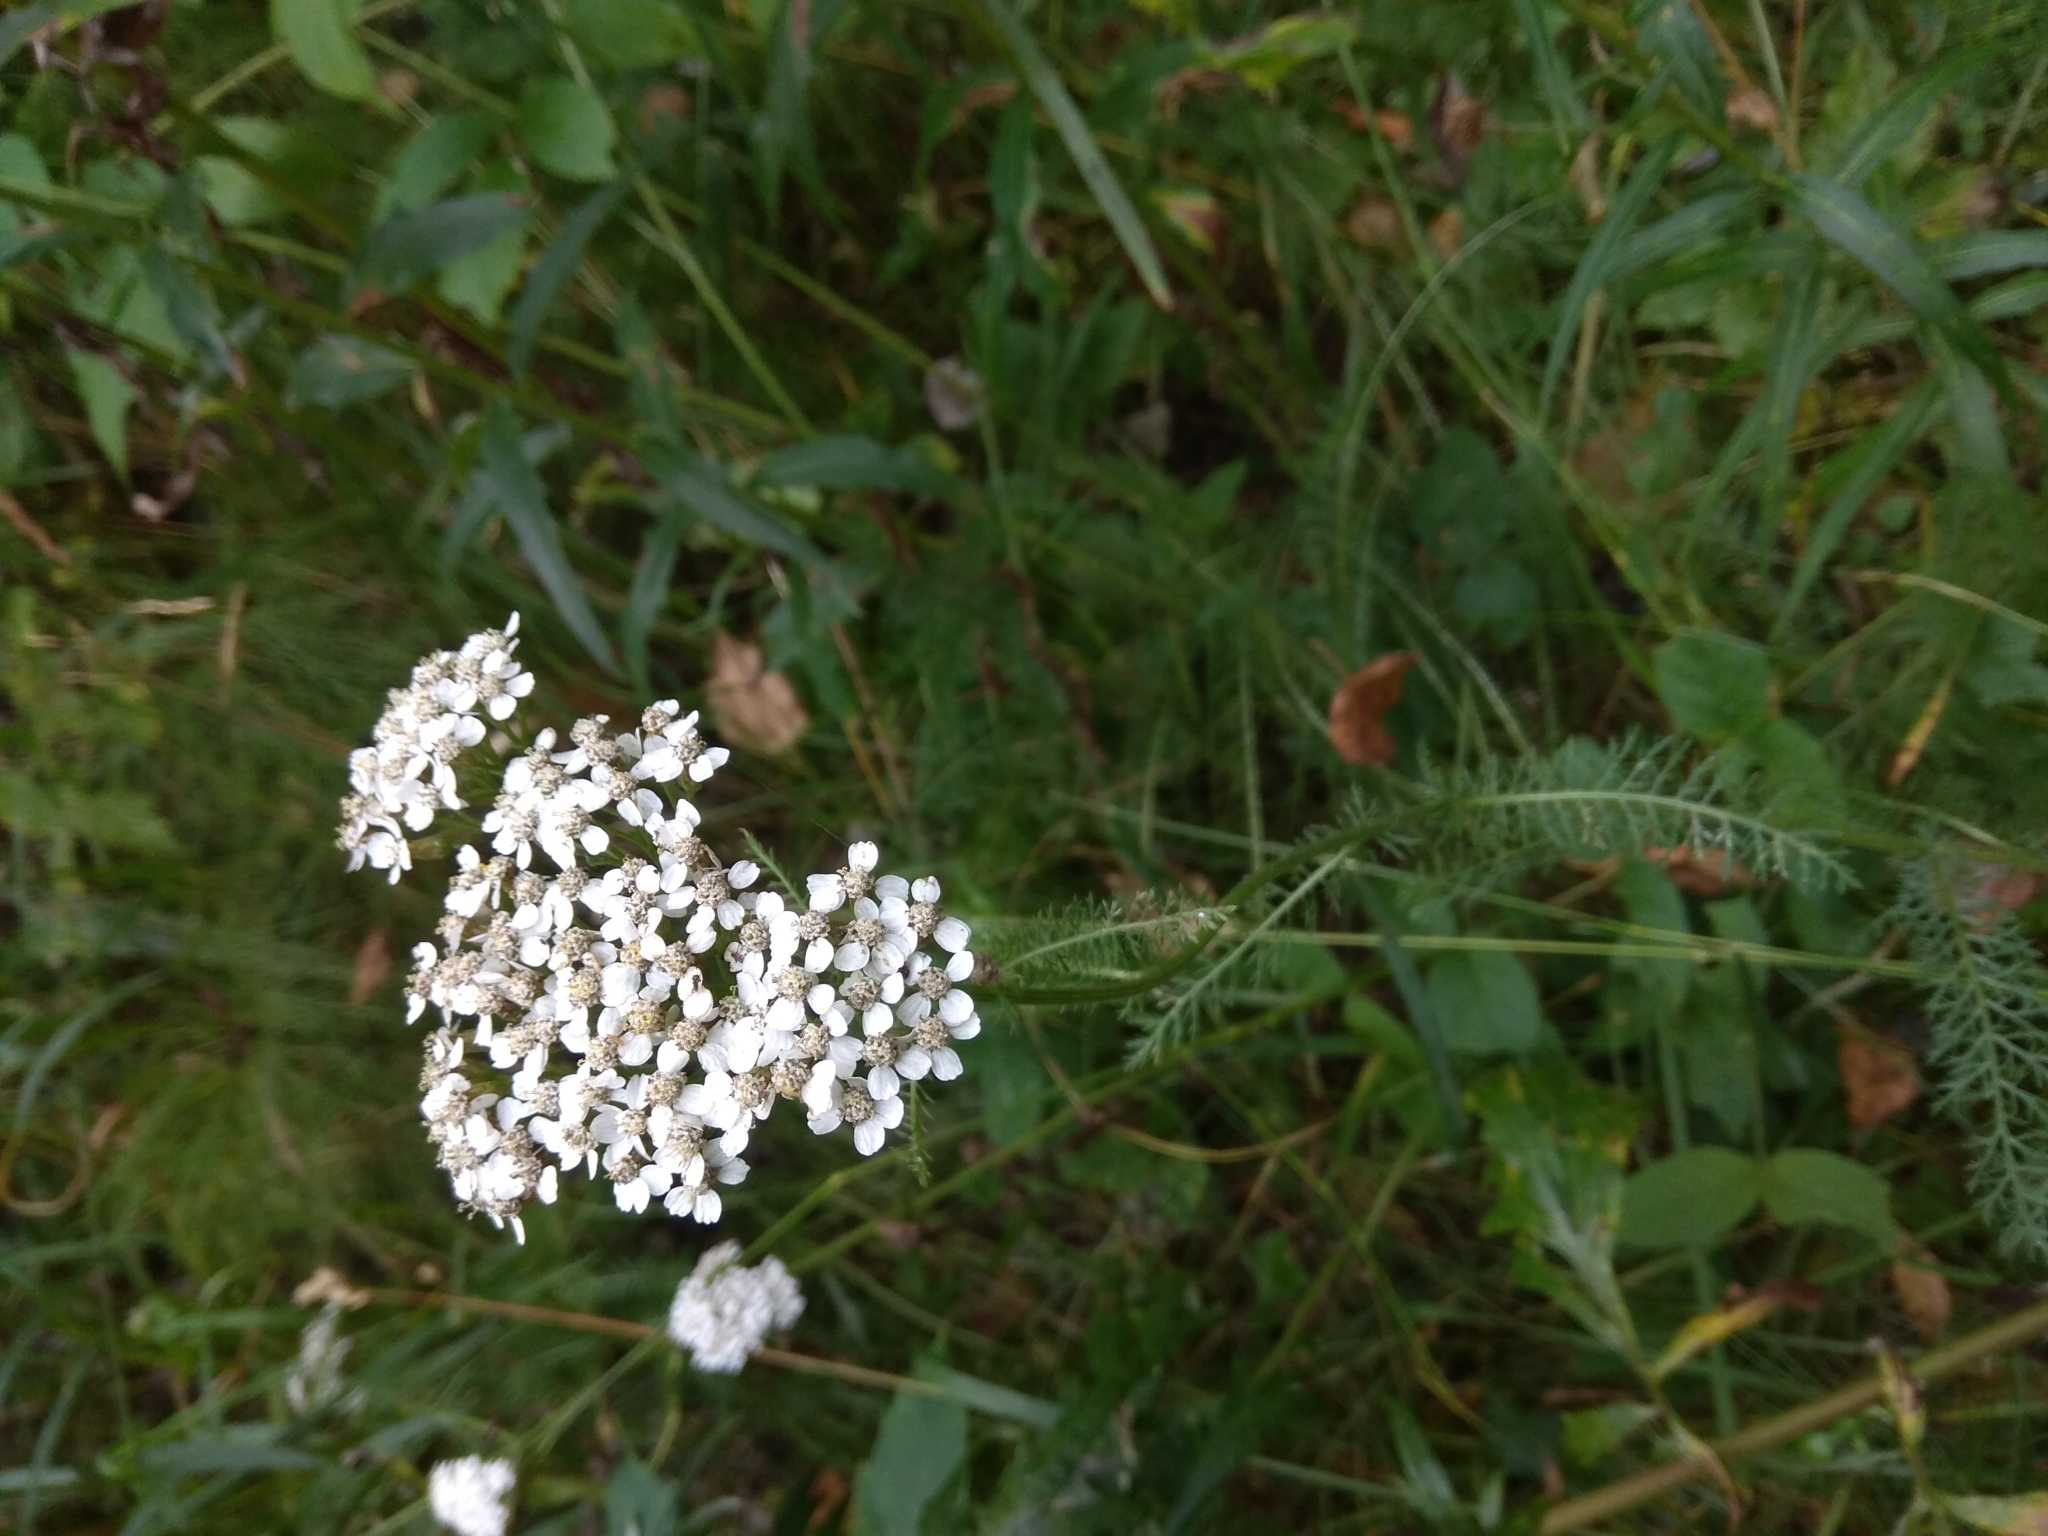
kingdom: Plantae
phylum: Tracheophyta
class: Magnoliopsida
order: Asterales
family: Asteraceae
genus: Achillea
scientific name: Achillea millefolium
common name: Yarrow
